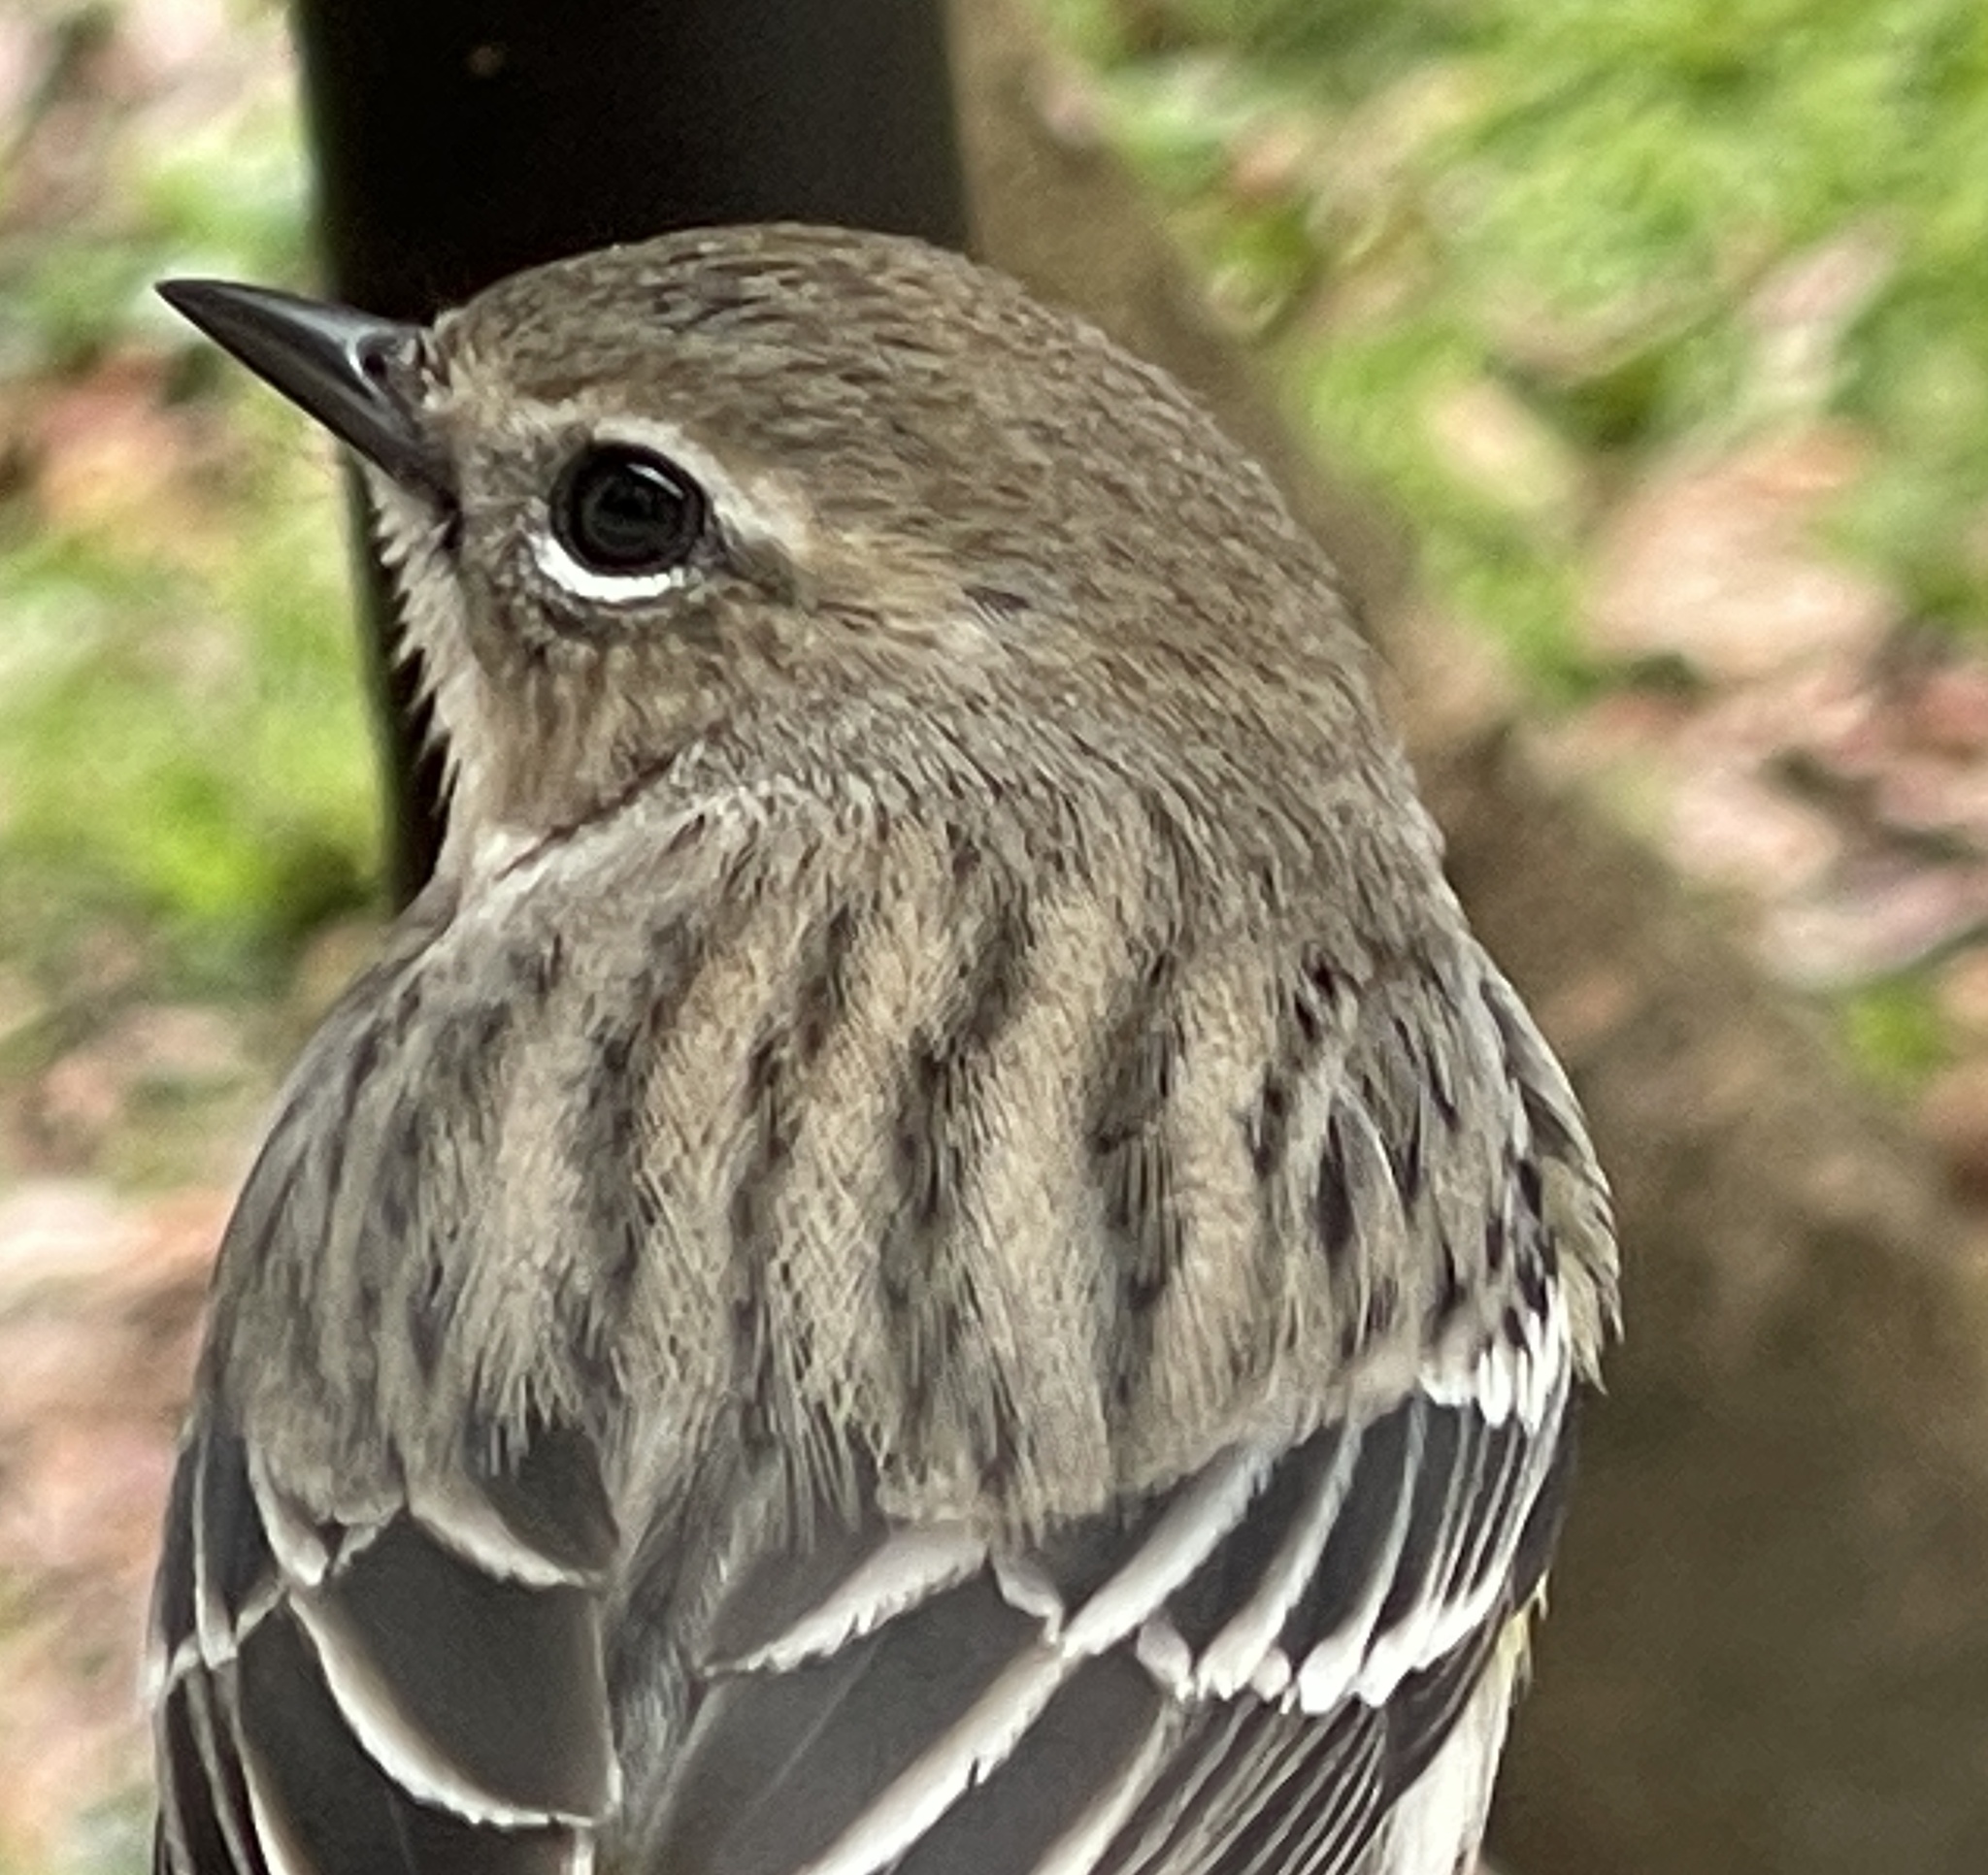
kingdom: Animalia
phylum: Chordata
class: Aves
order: Passeriformes
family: Parulidae
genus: Setophaga
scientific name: Setophaga coronata
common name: Myrtle warbler
